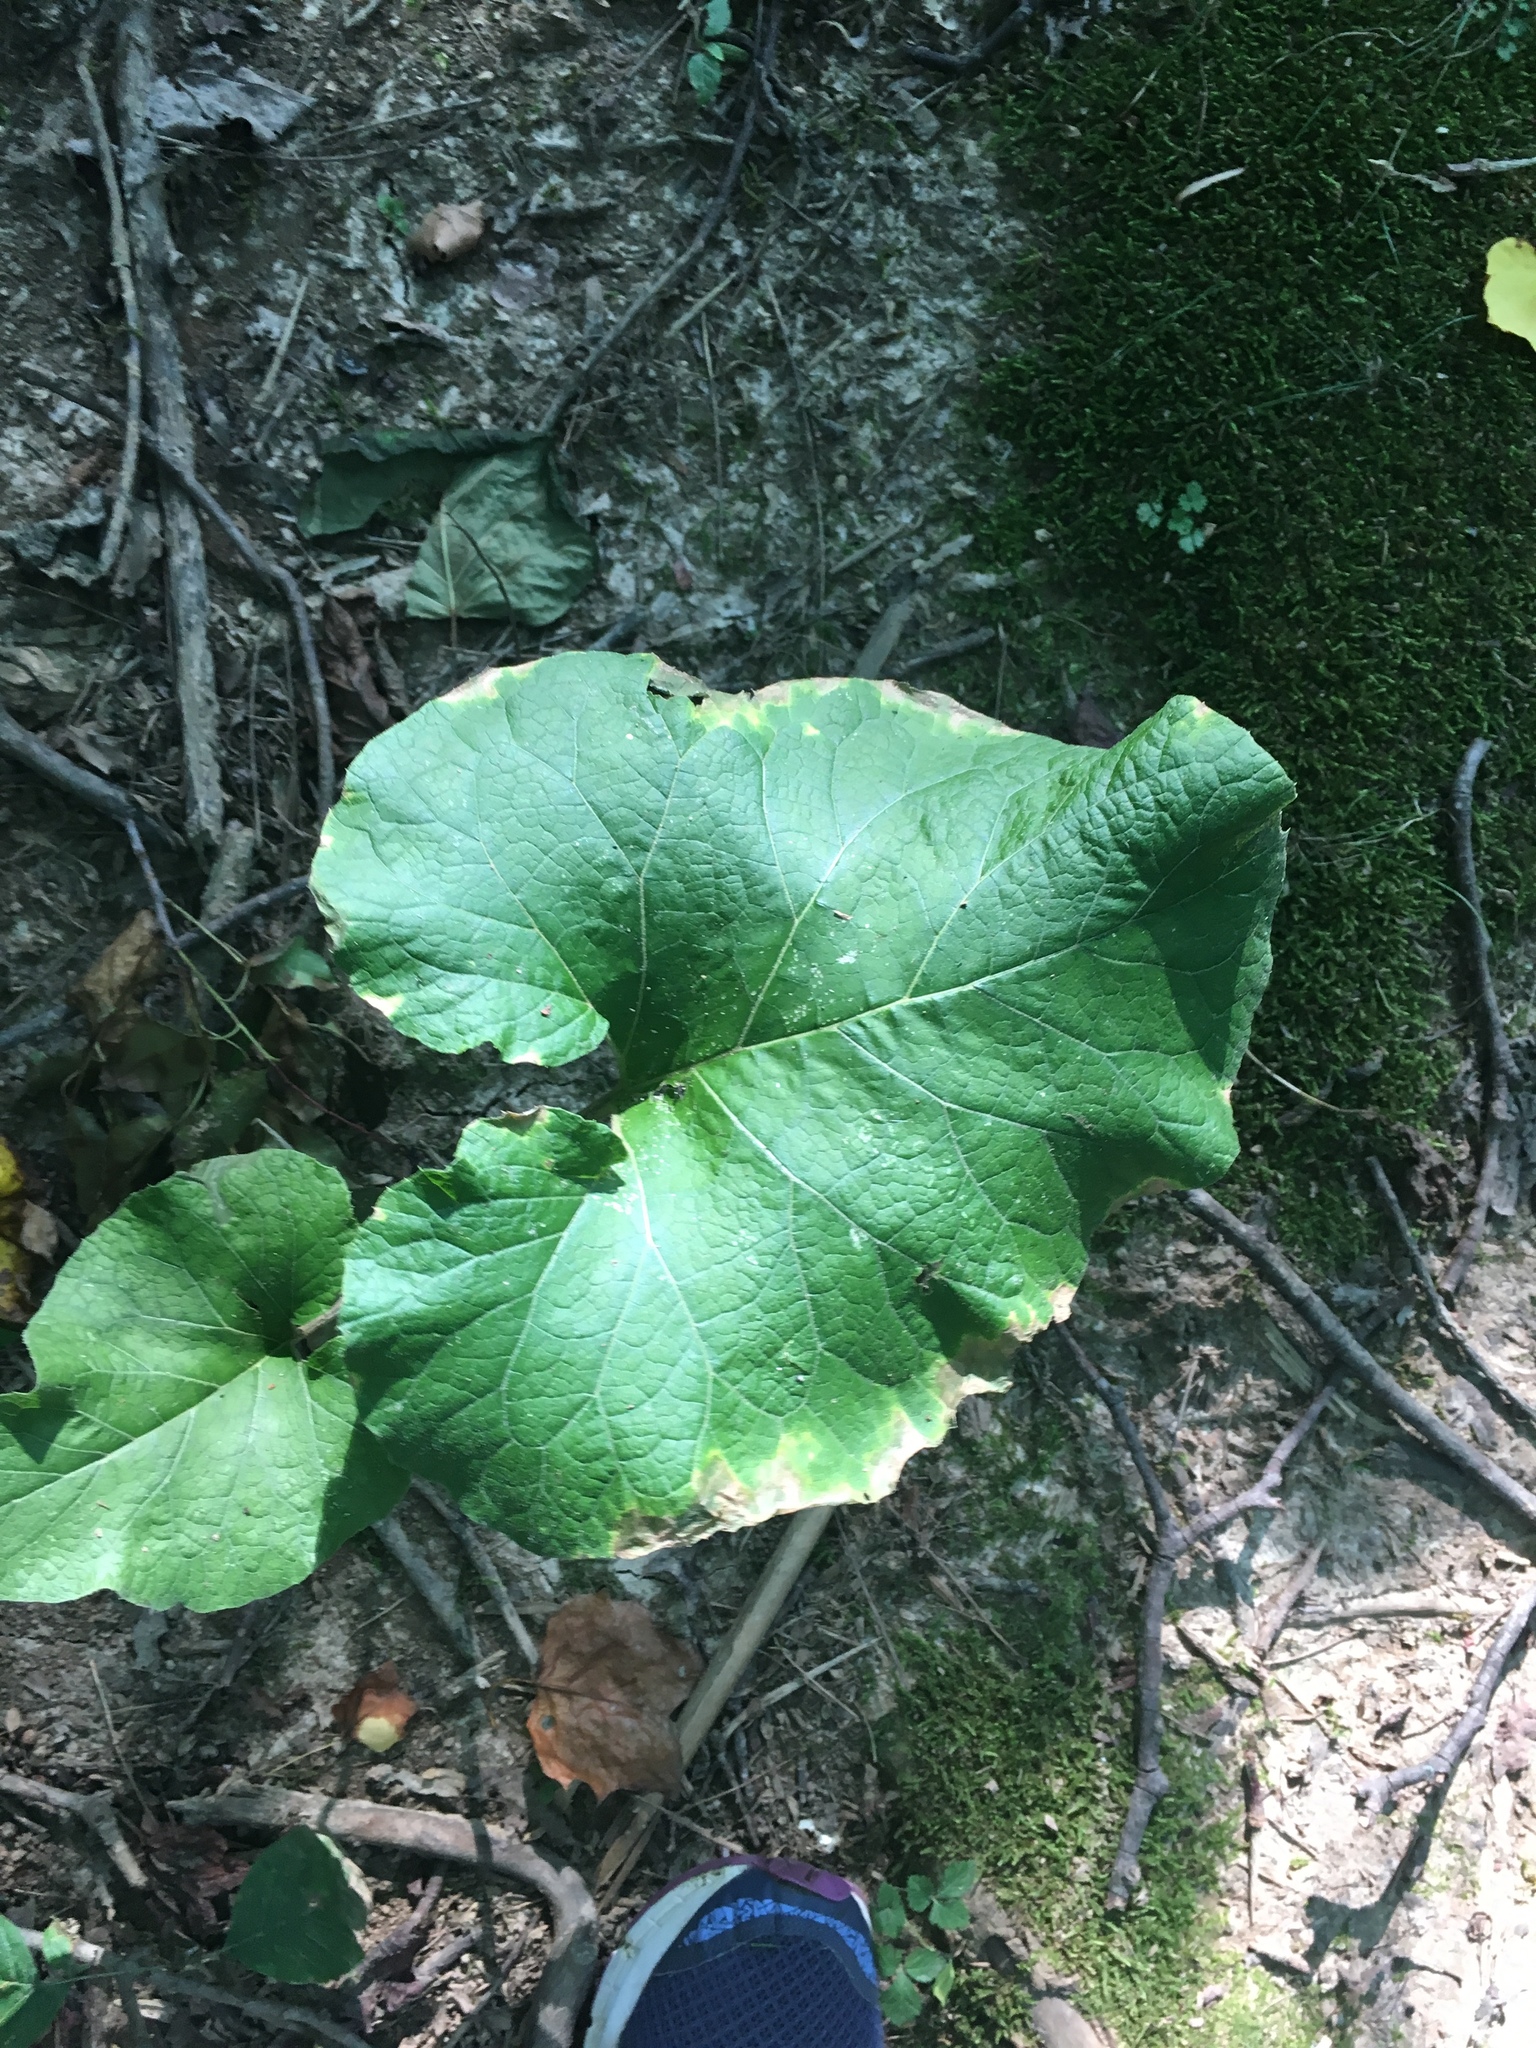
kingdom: Plantae
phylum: Tracheophyta
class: Magnoliopsida
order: Asterales
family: Asteraceae
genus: Arctium
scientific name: Arctium
